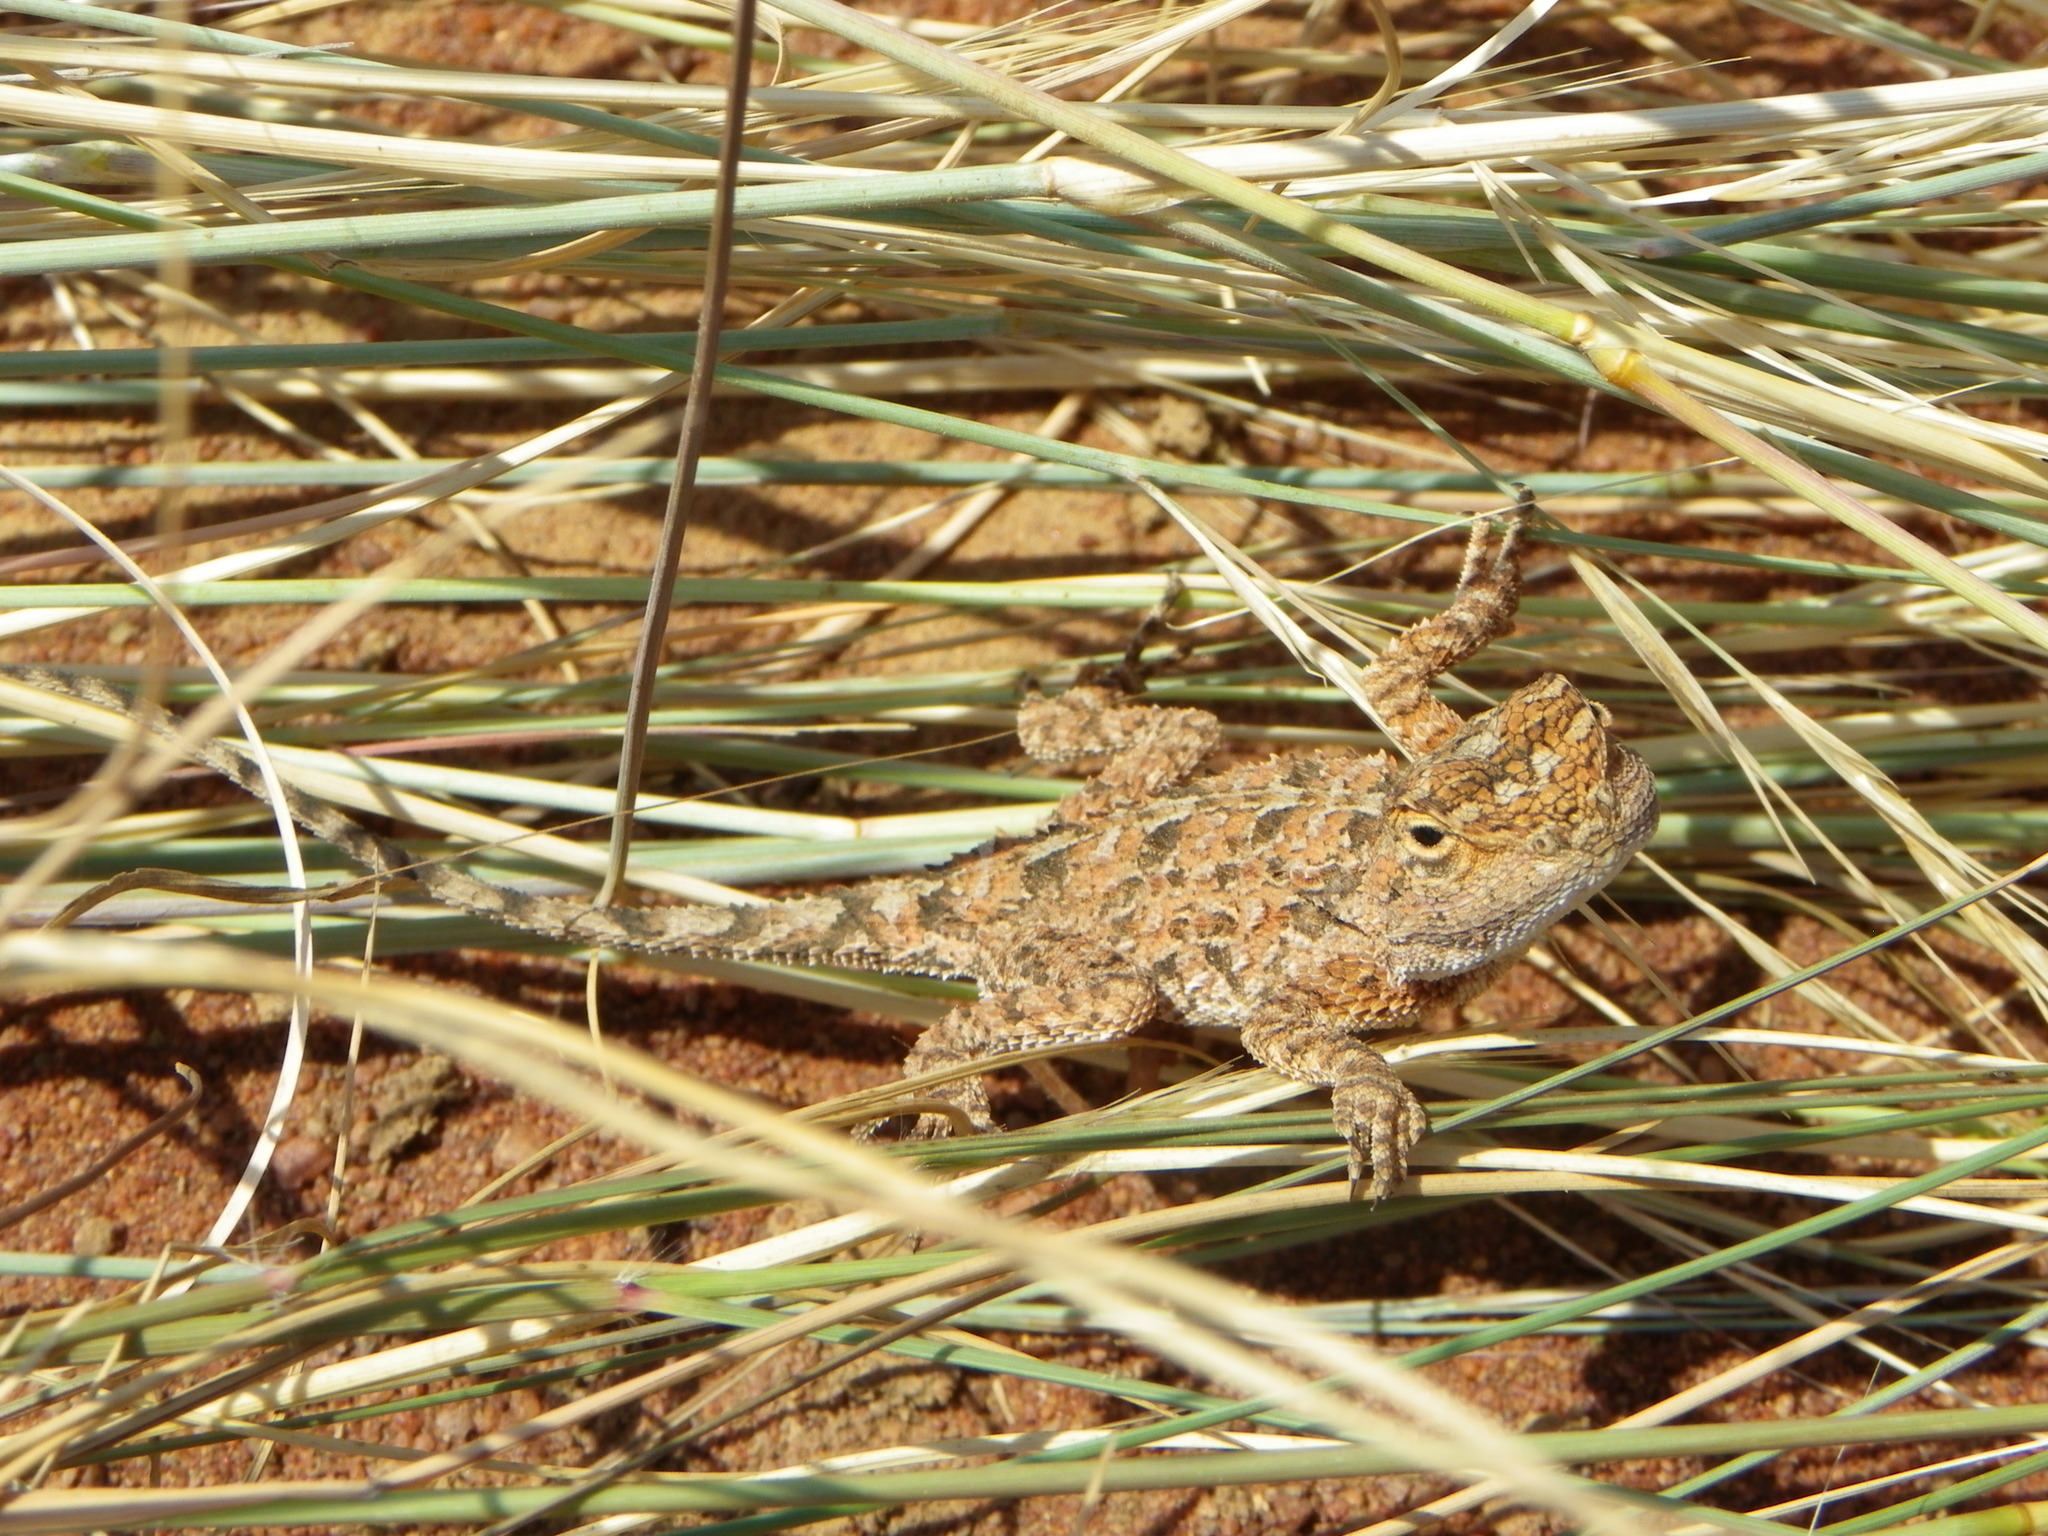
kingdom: Animalia
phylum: Chordata
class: Squamata
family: Agamidae
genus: Agama
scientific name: Agama aculeata
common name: Common ground agama
